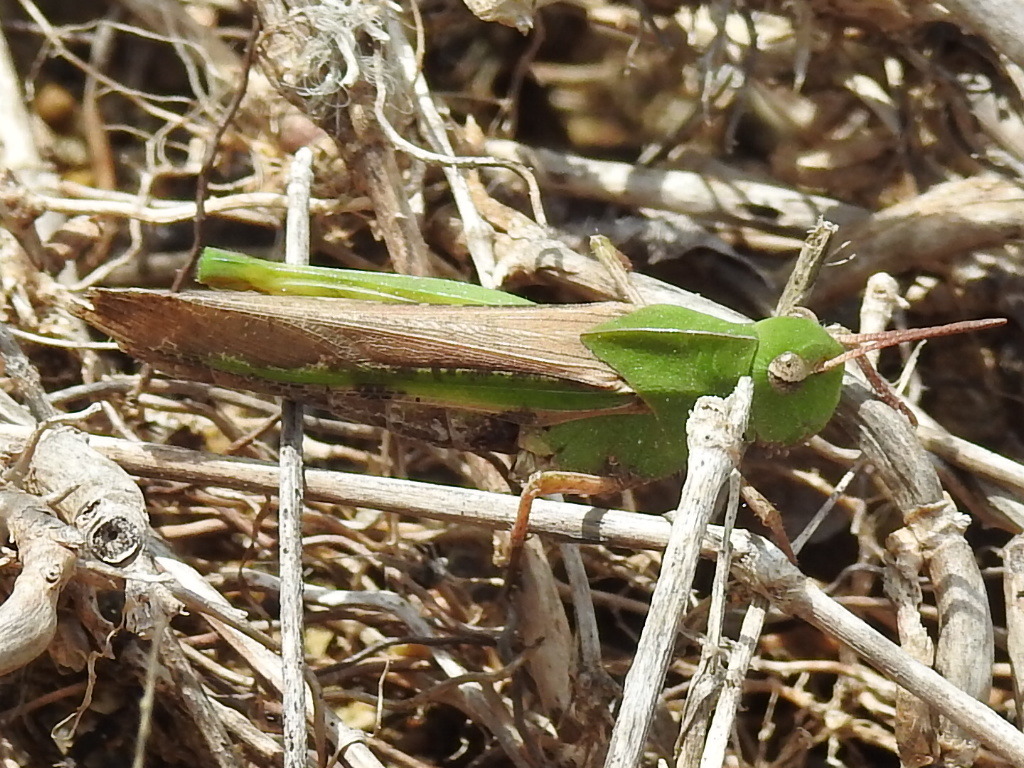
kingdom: Animalia
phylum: Arthropoda
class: Insecta
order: Orthoptera
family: Acrididae
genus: Chortophaga
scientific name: Chortophaga viridifasciata
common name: Green-striped grasshopper
